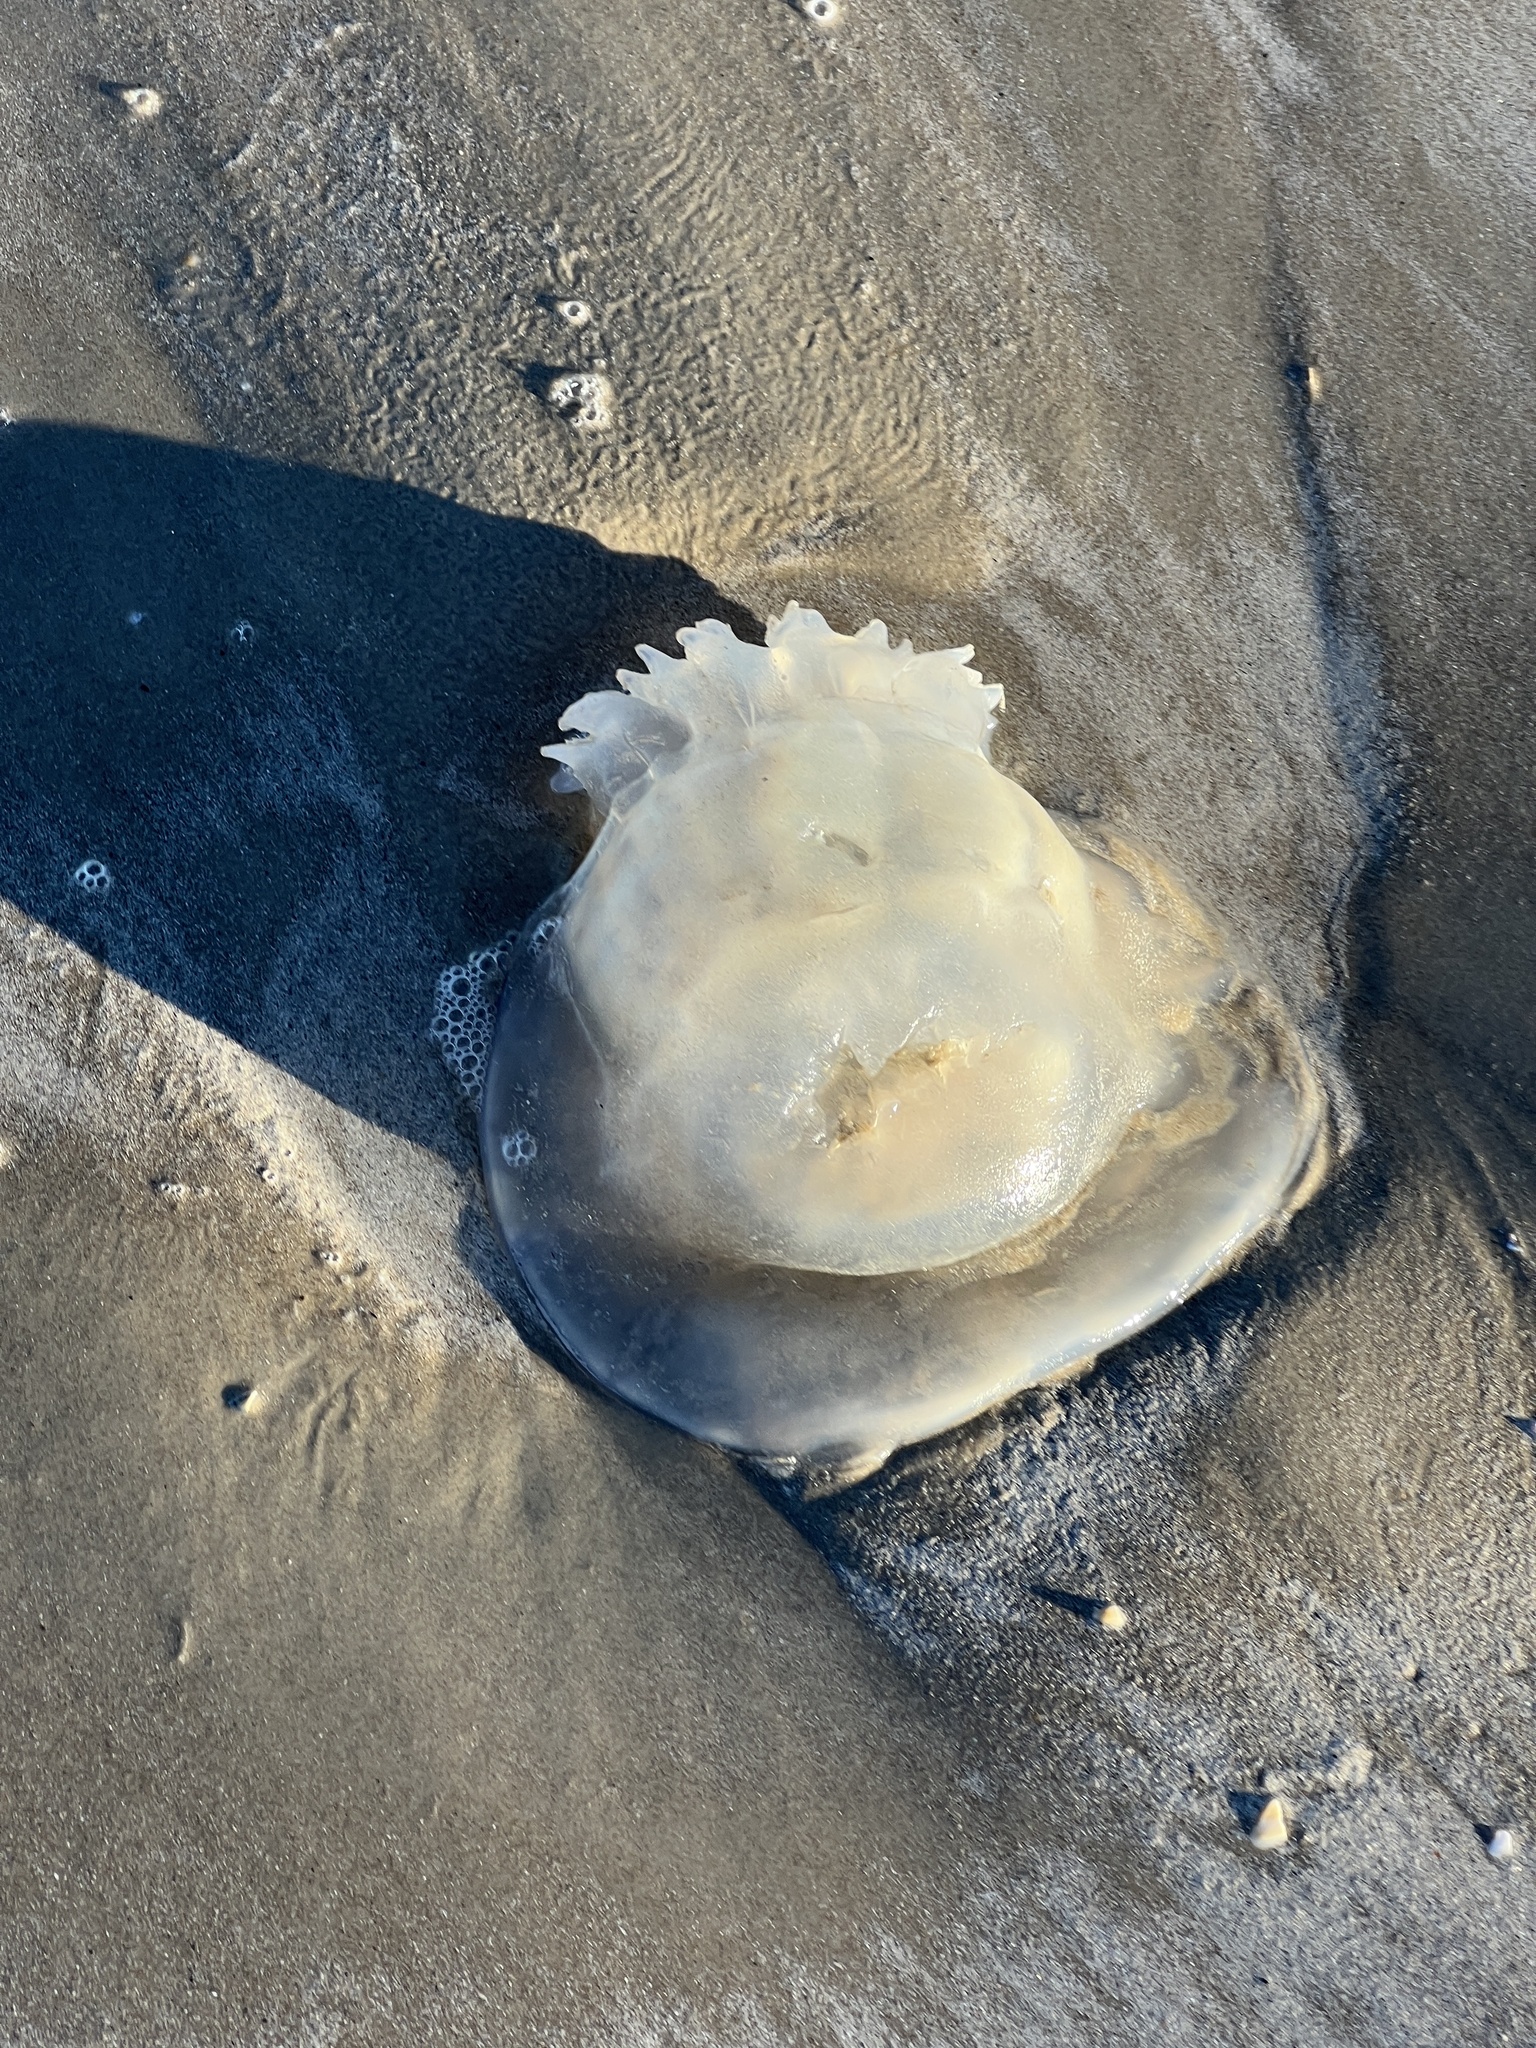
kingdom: Animalia
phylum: Cnidaria
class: Scyphozoa
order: Rhizostomeae
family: Stomolophidae
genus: Stomolophus
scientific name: Stomolophus meleagris
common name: Cabbagehead
